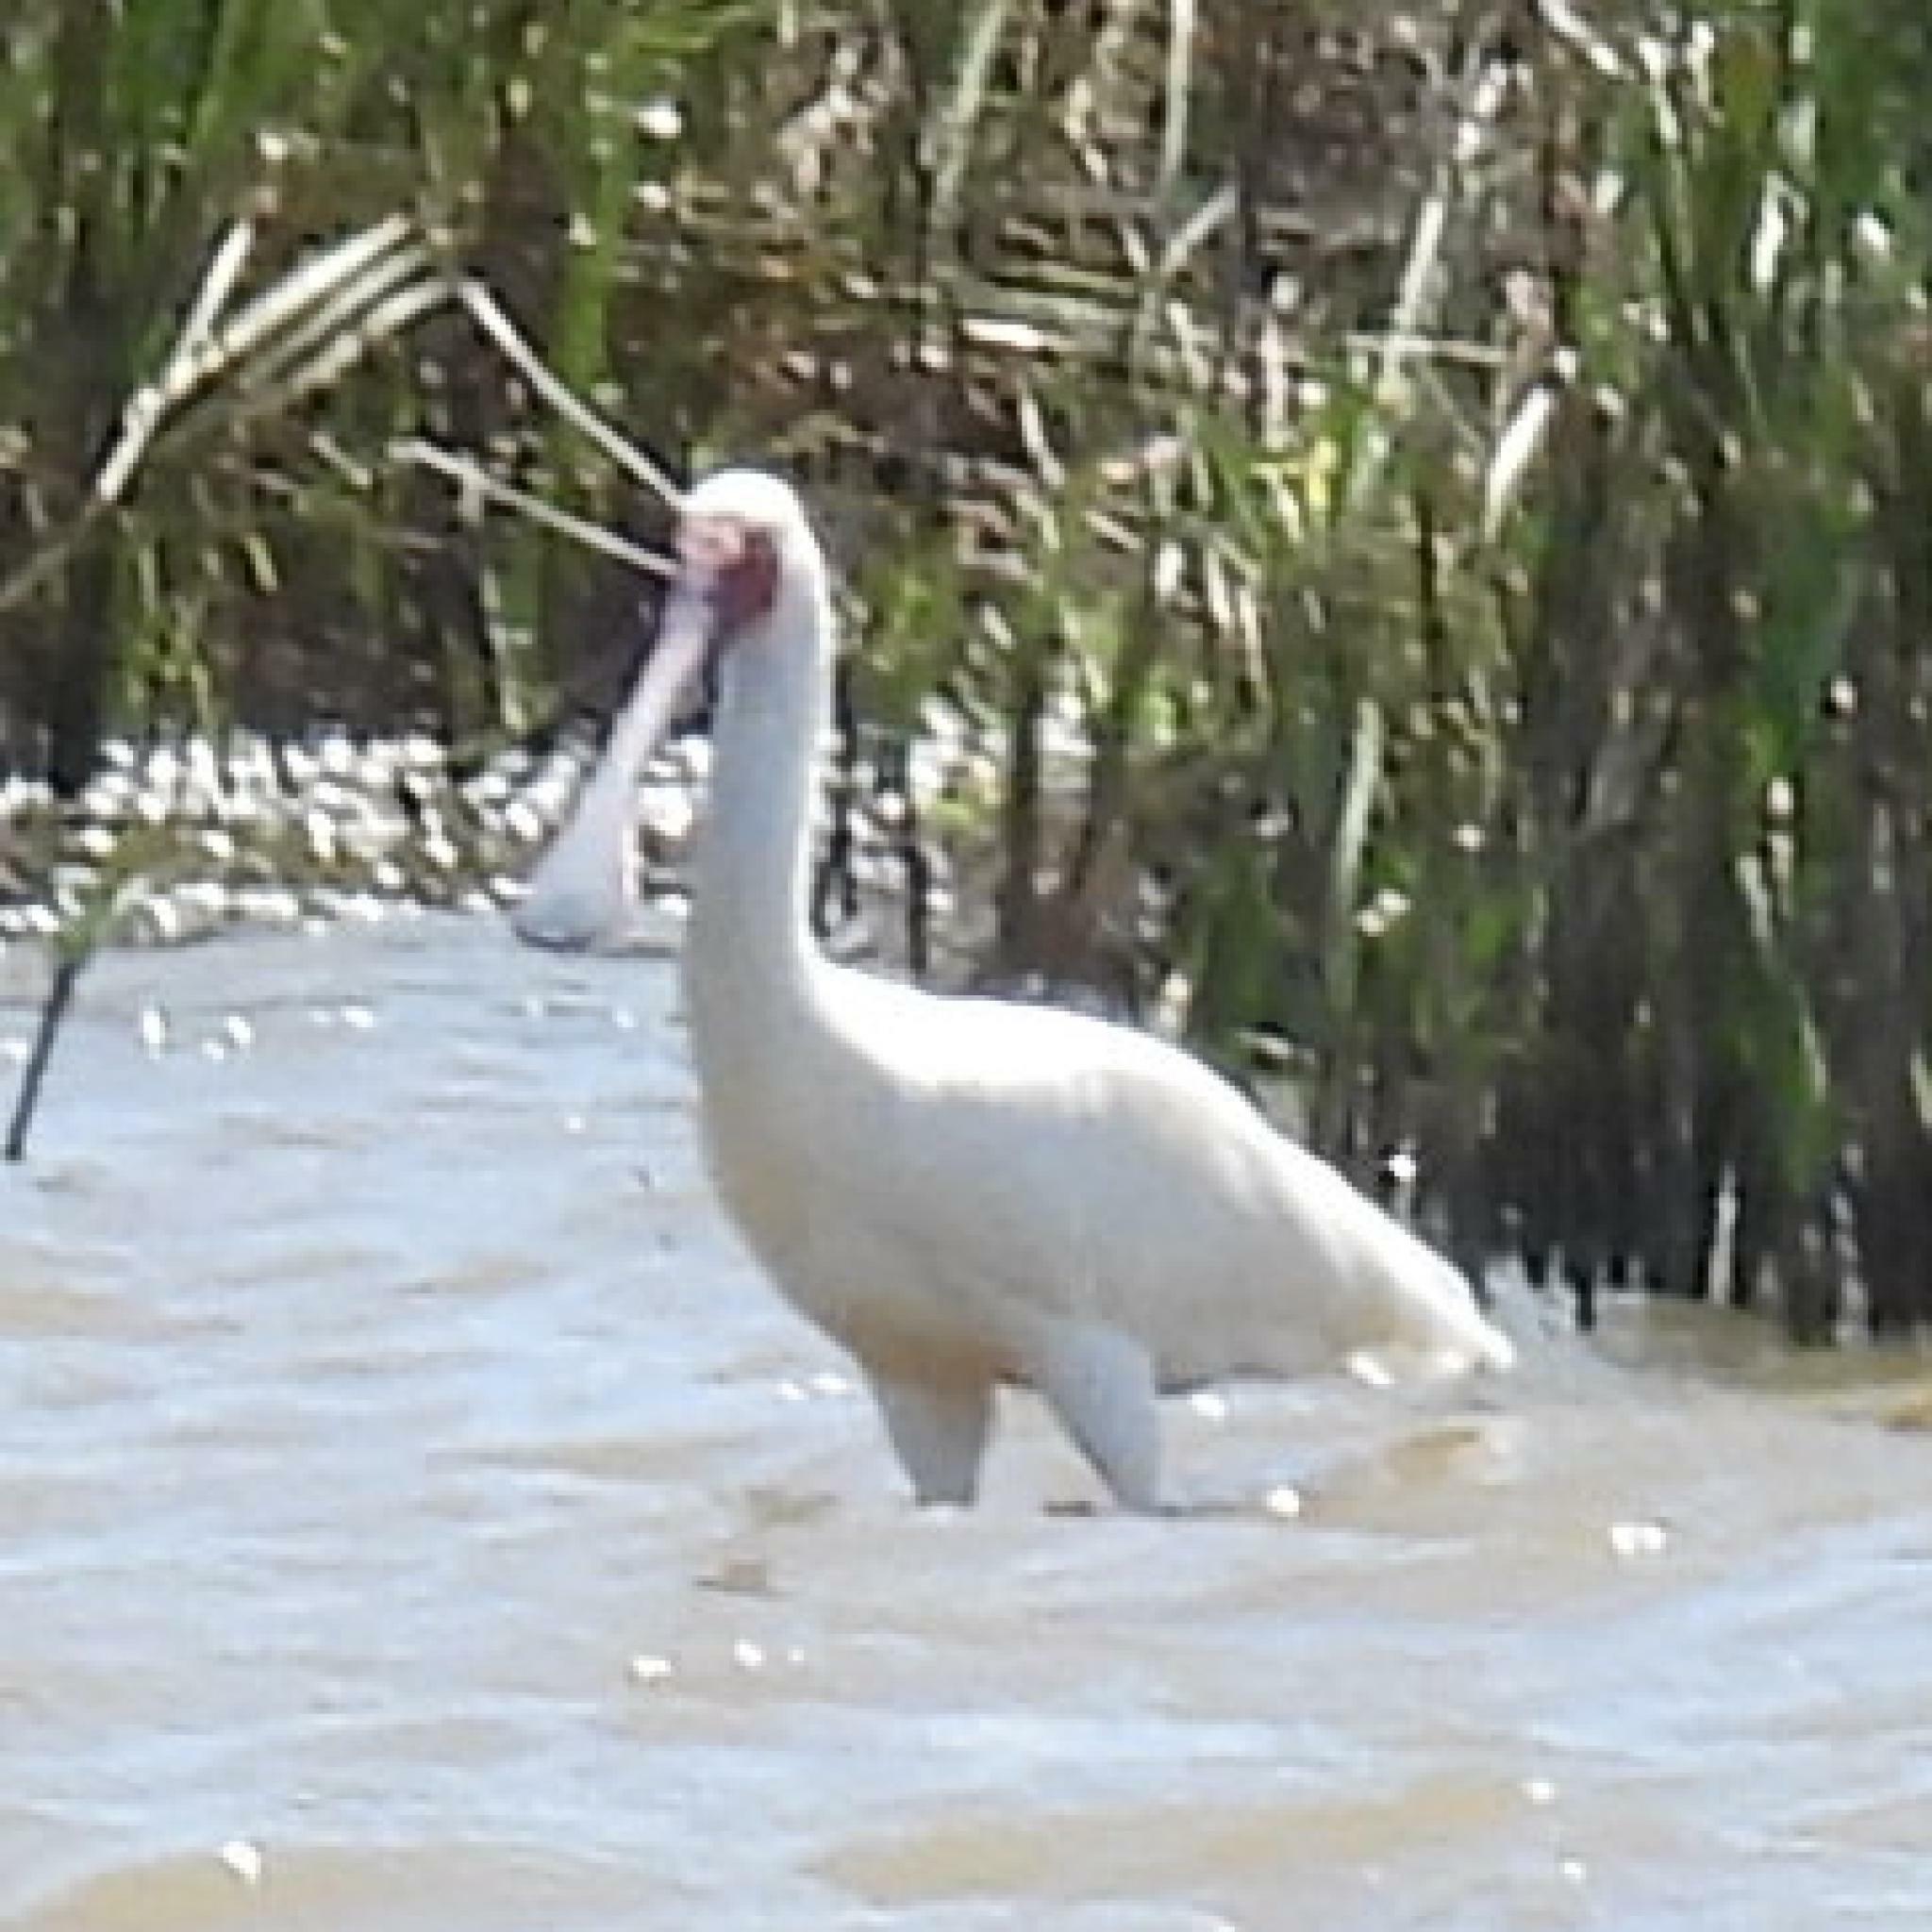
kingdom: Animalia
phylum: Chordata
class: Aves
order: Pelecaniformes
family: Threskiornithidae
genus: Platalea
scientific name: Platalea alba
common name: African spoonbill
